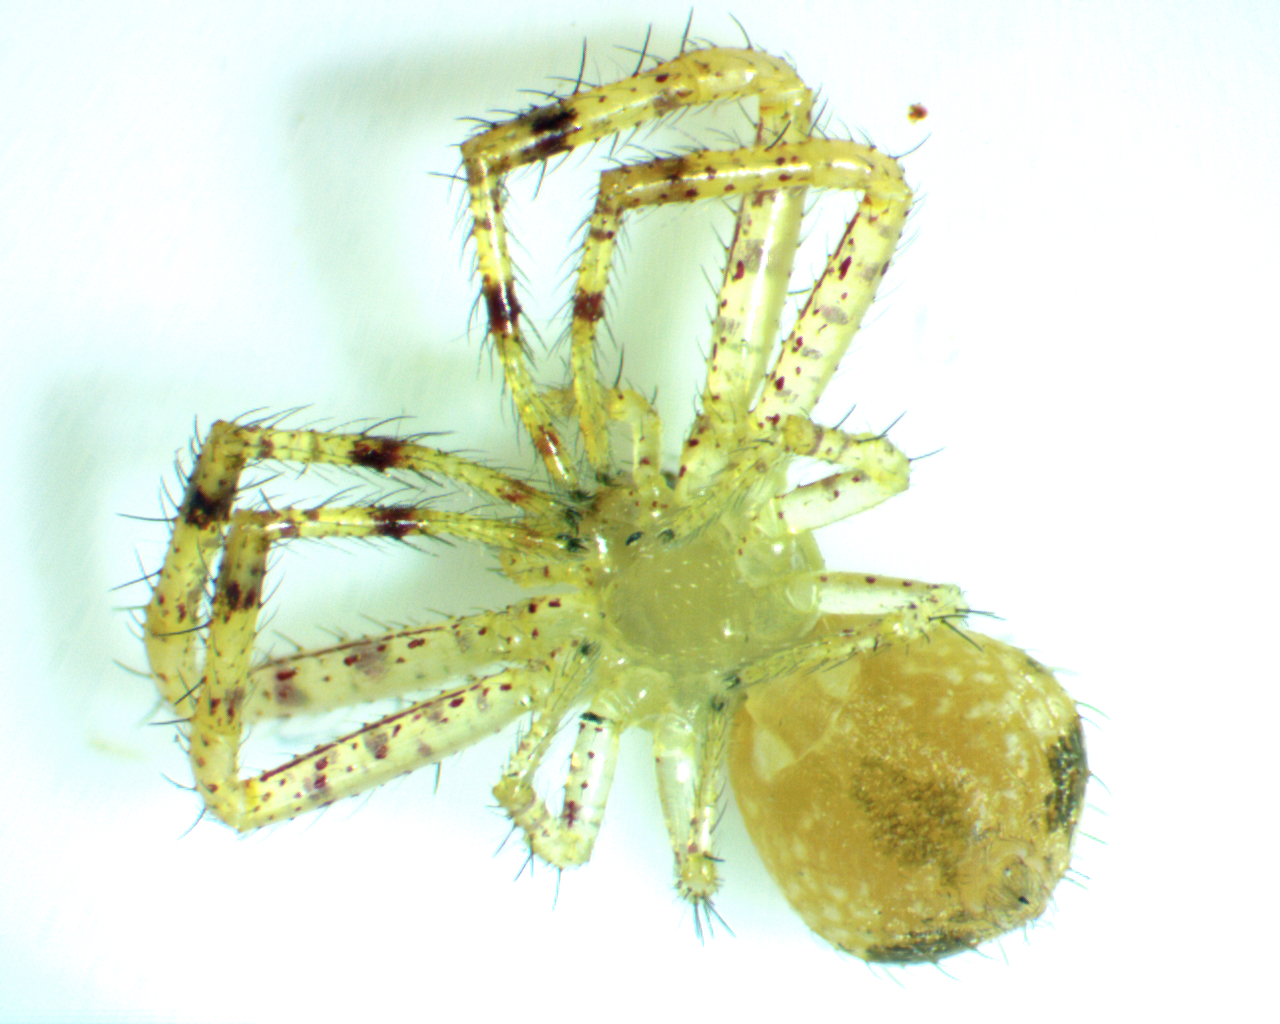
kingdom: Animalia
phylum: Arthropoda
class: Arachnida
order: Araneae
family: Thomisidae
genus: Mecaphesa
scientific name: Mecaphesa asperata
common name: Crab spiders
